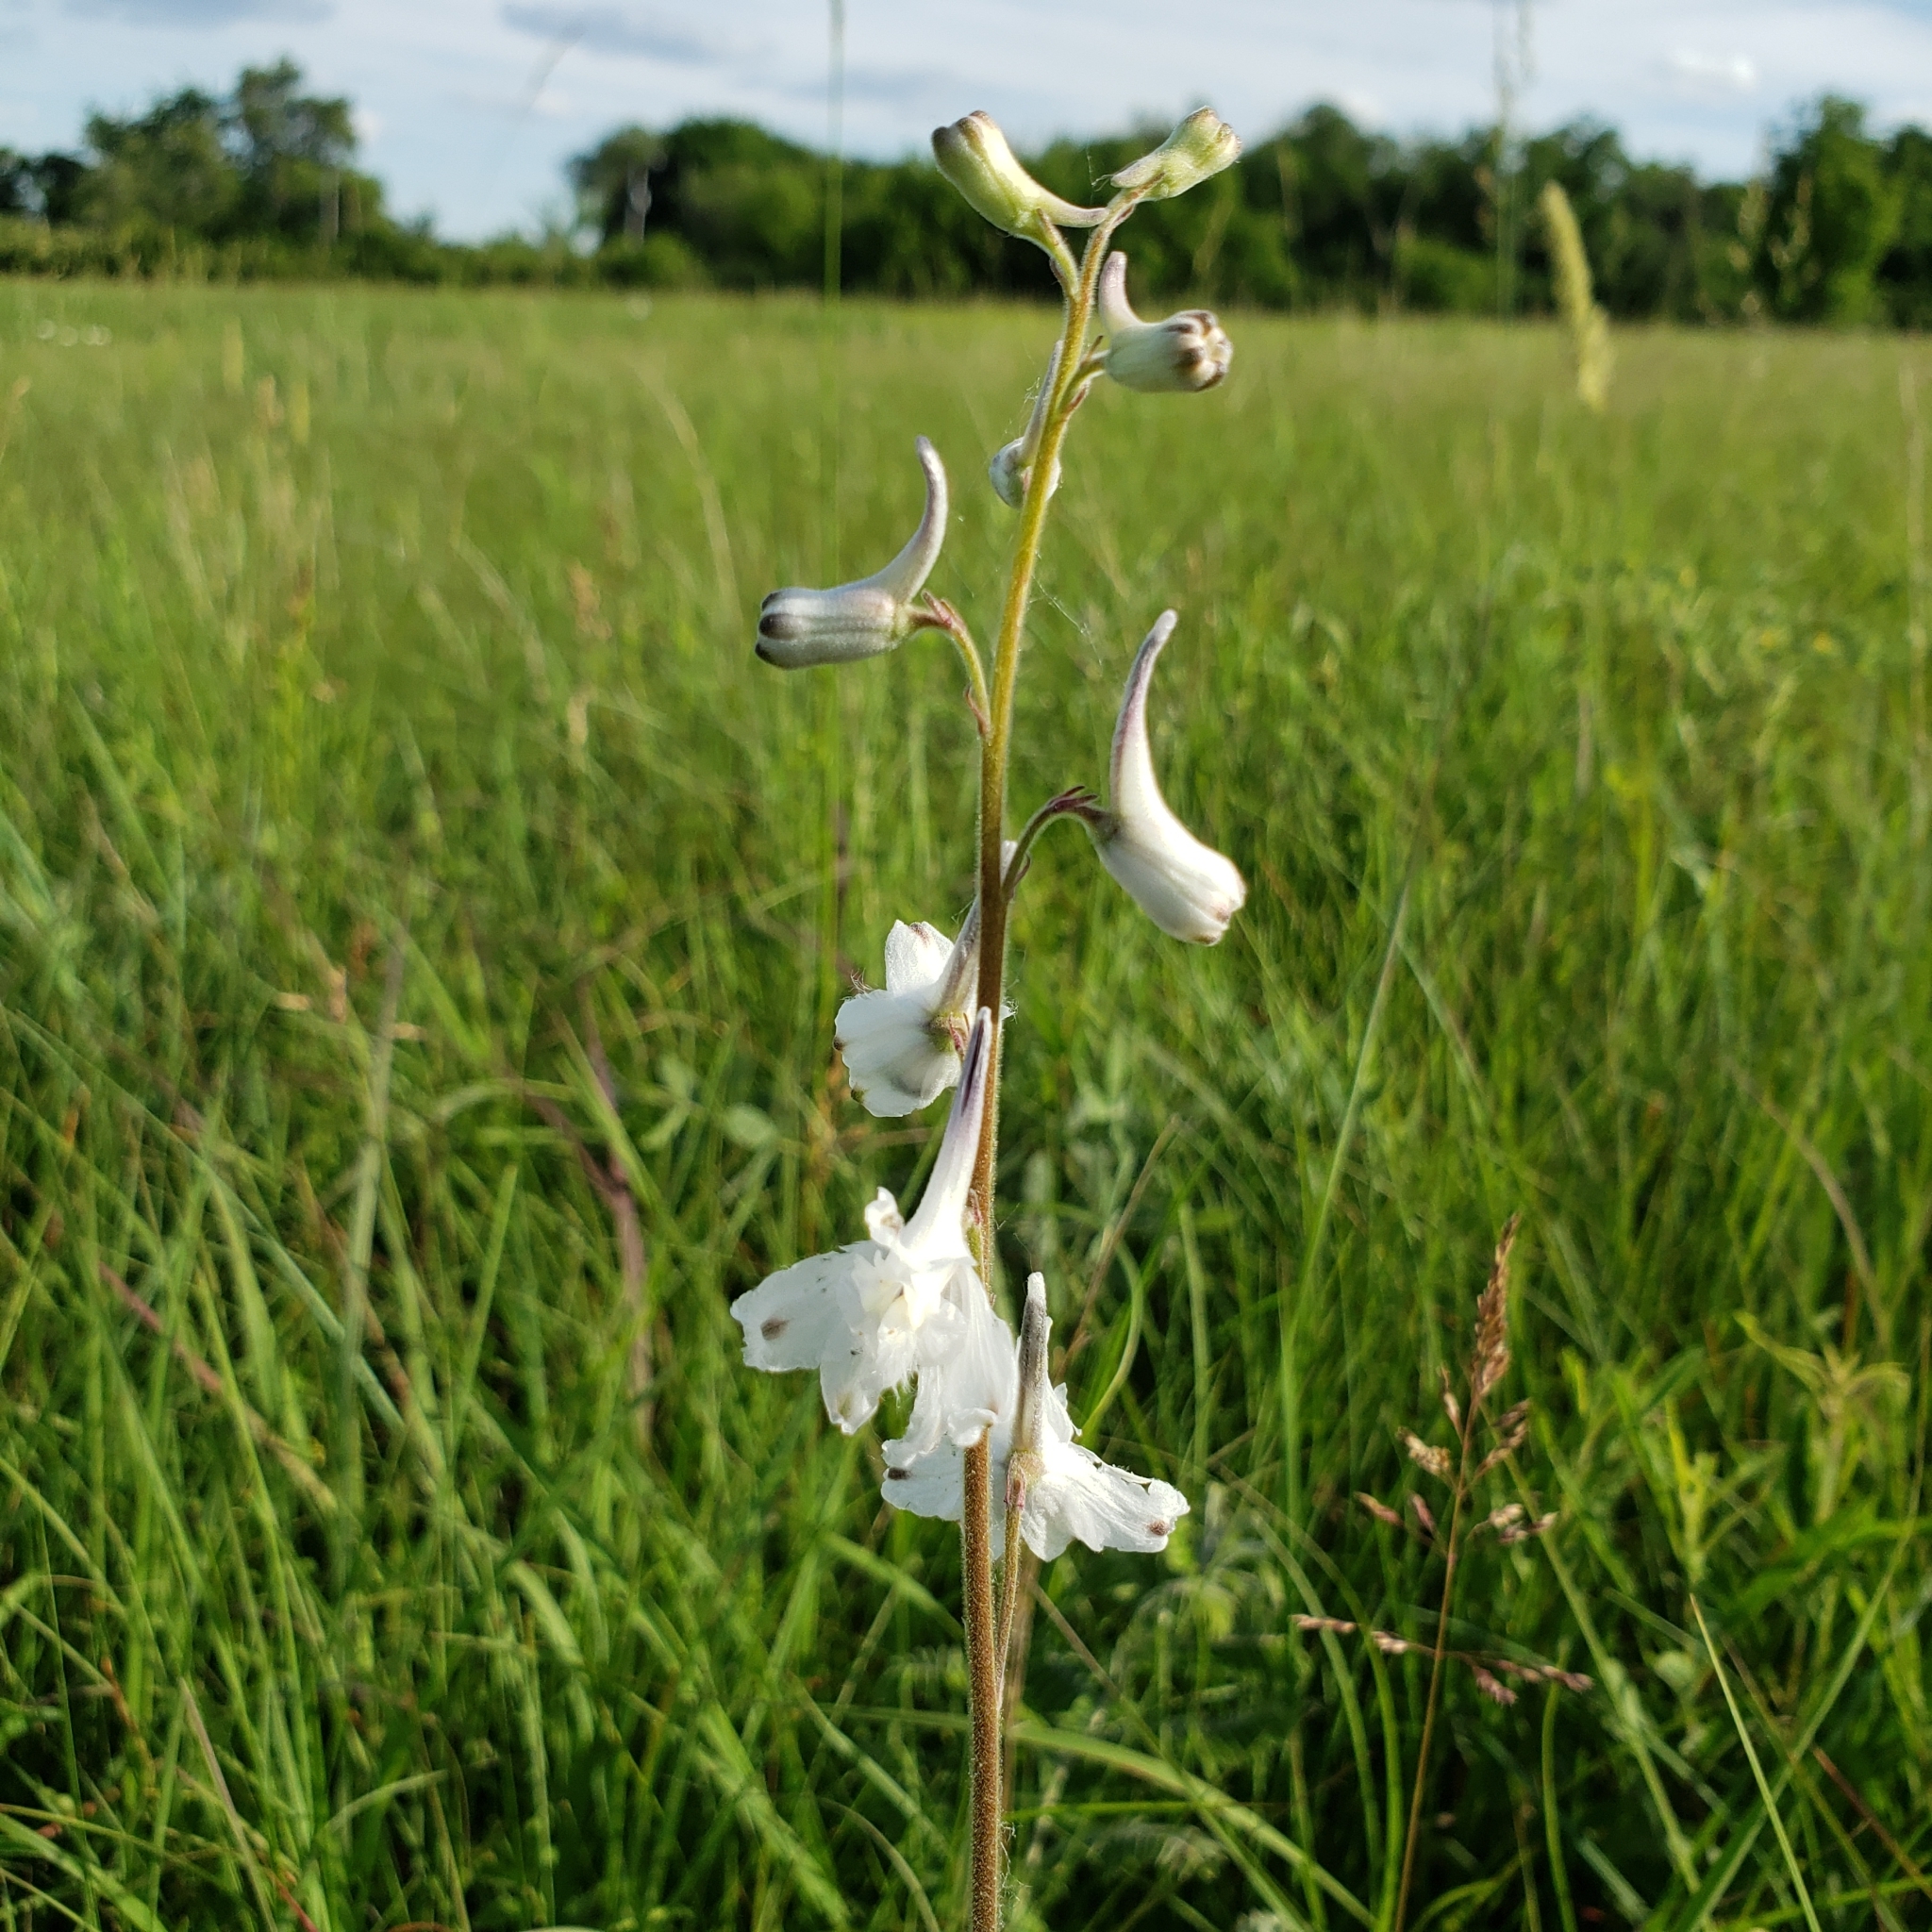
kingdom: Plantae
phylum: Tracheophyta
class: Magnoliopsida
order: Ranunculales
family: Ranunculaceae
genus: Delphinium
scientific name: Delphinium carolinianum
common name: Carolina larkspur
